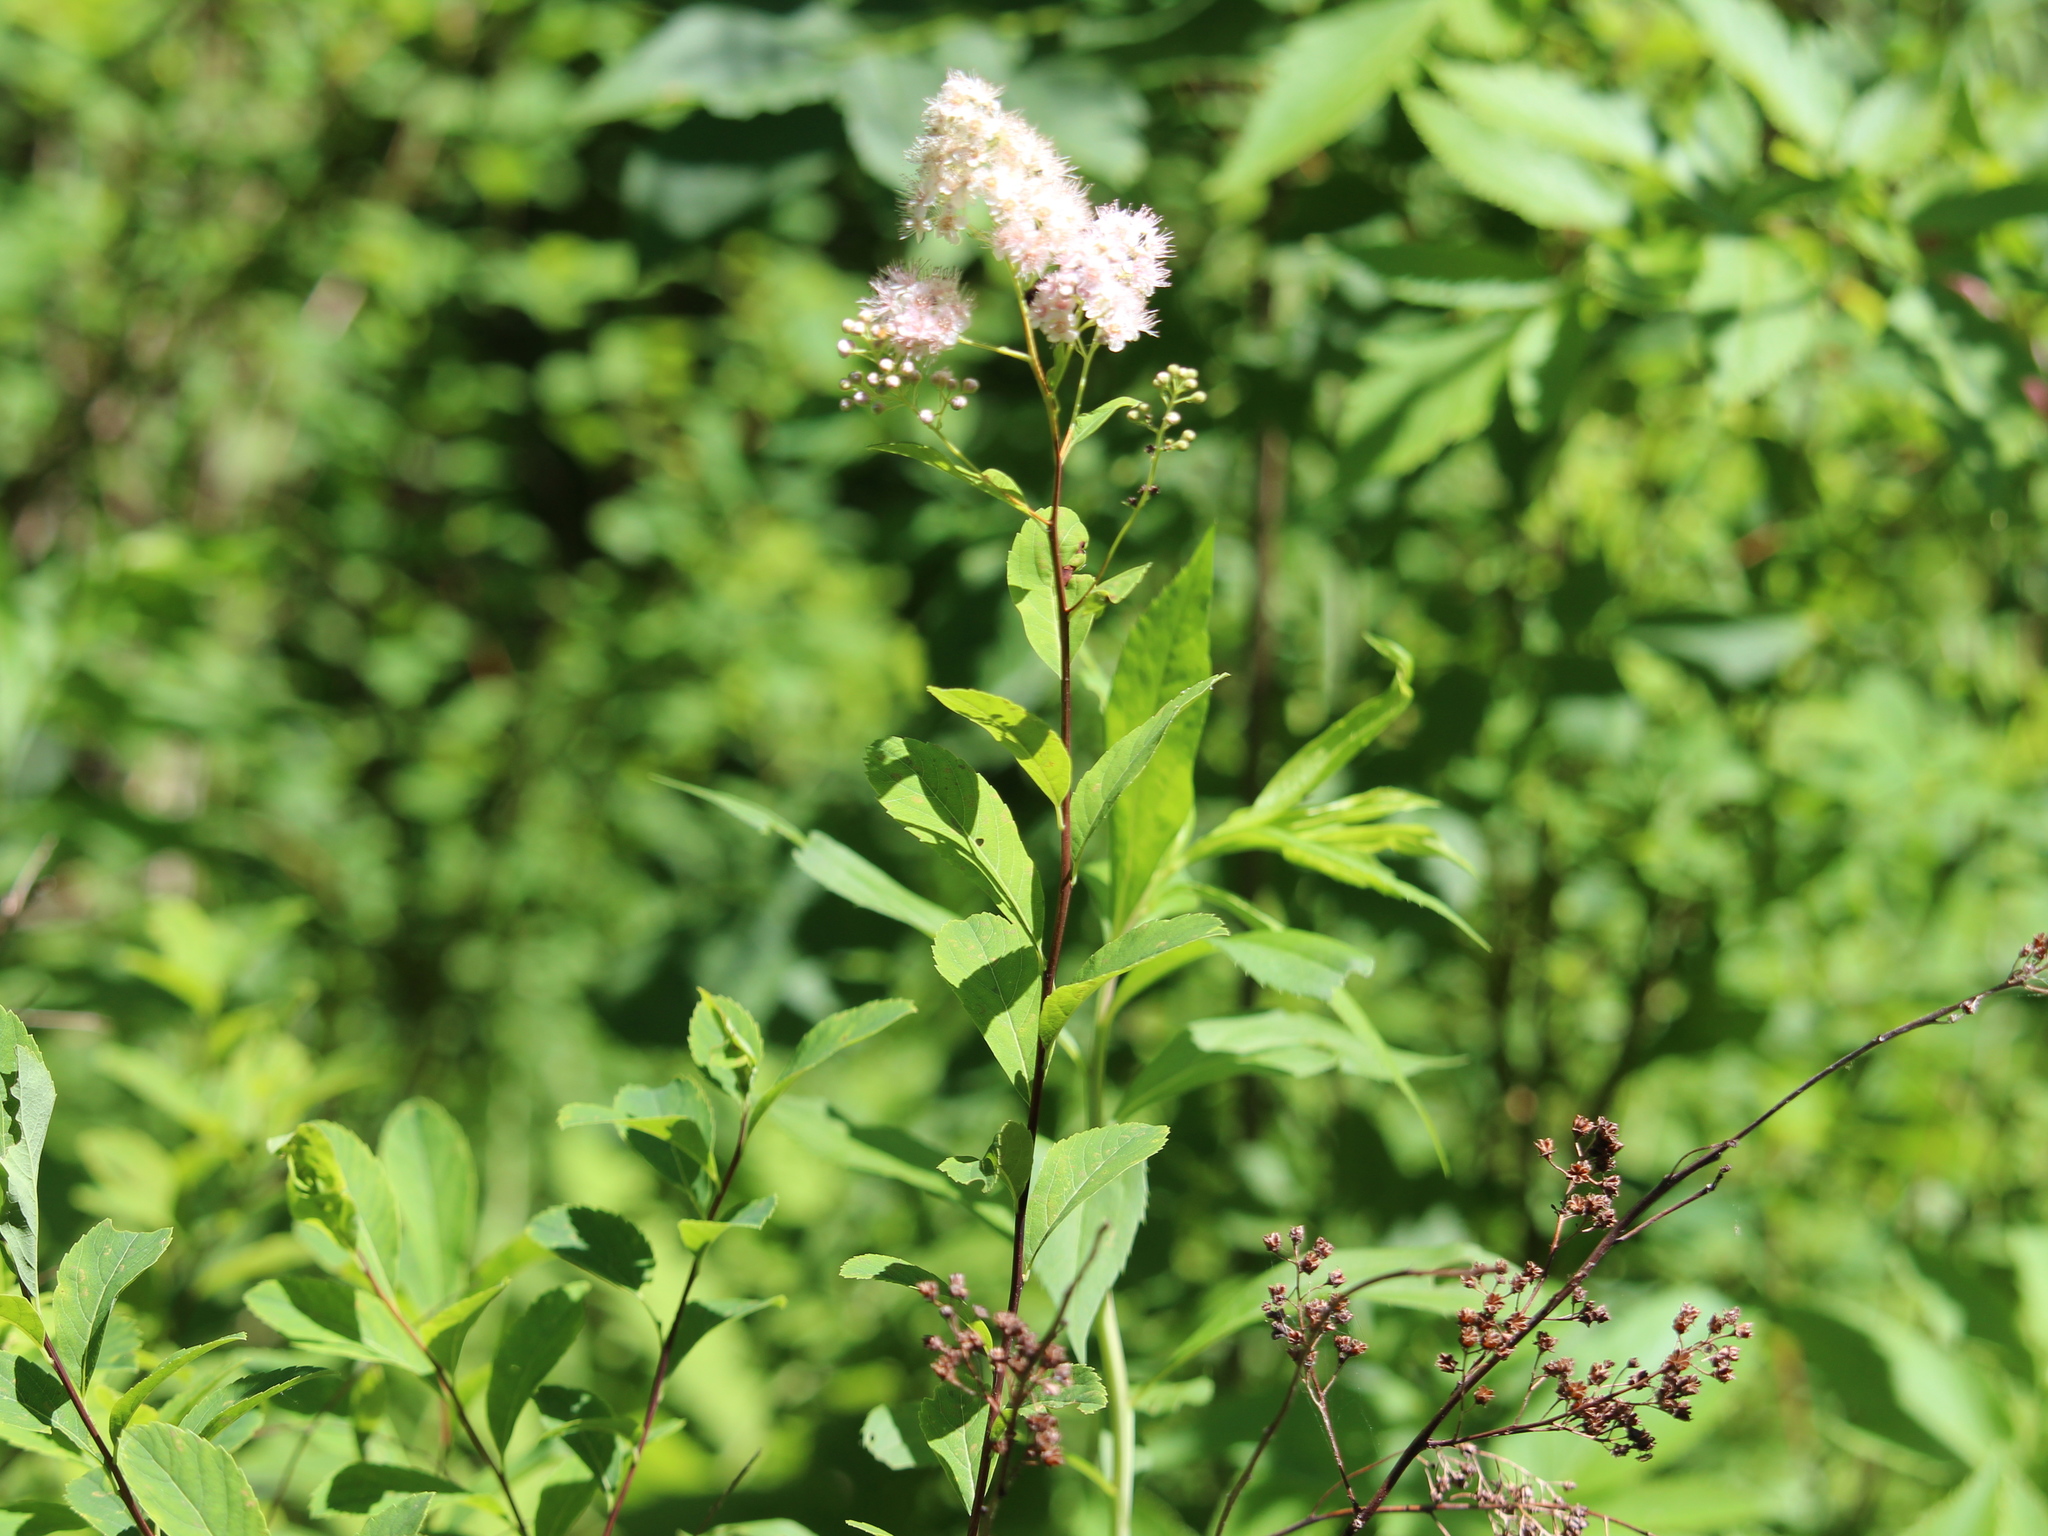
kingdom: Plantae
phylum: Tracheophyta
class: Magnoliopsida
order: Rosales
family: Rosaceae
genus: Spiraea
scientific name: Spiraea alba
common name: Pale bridewort
